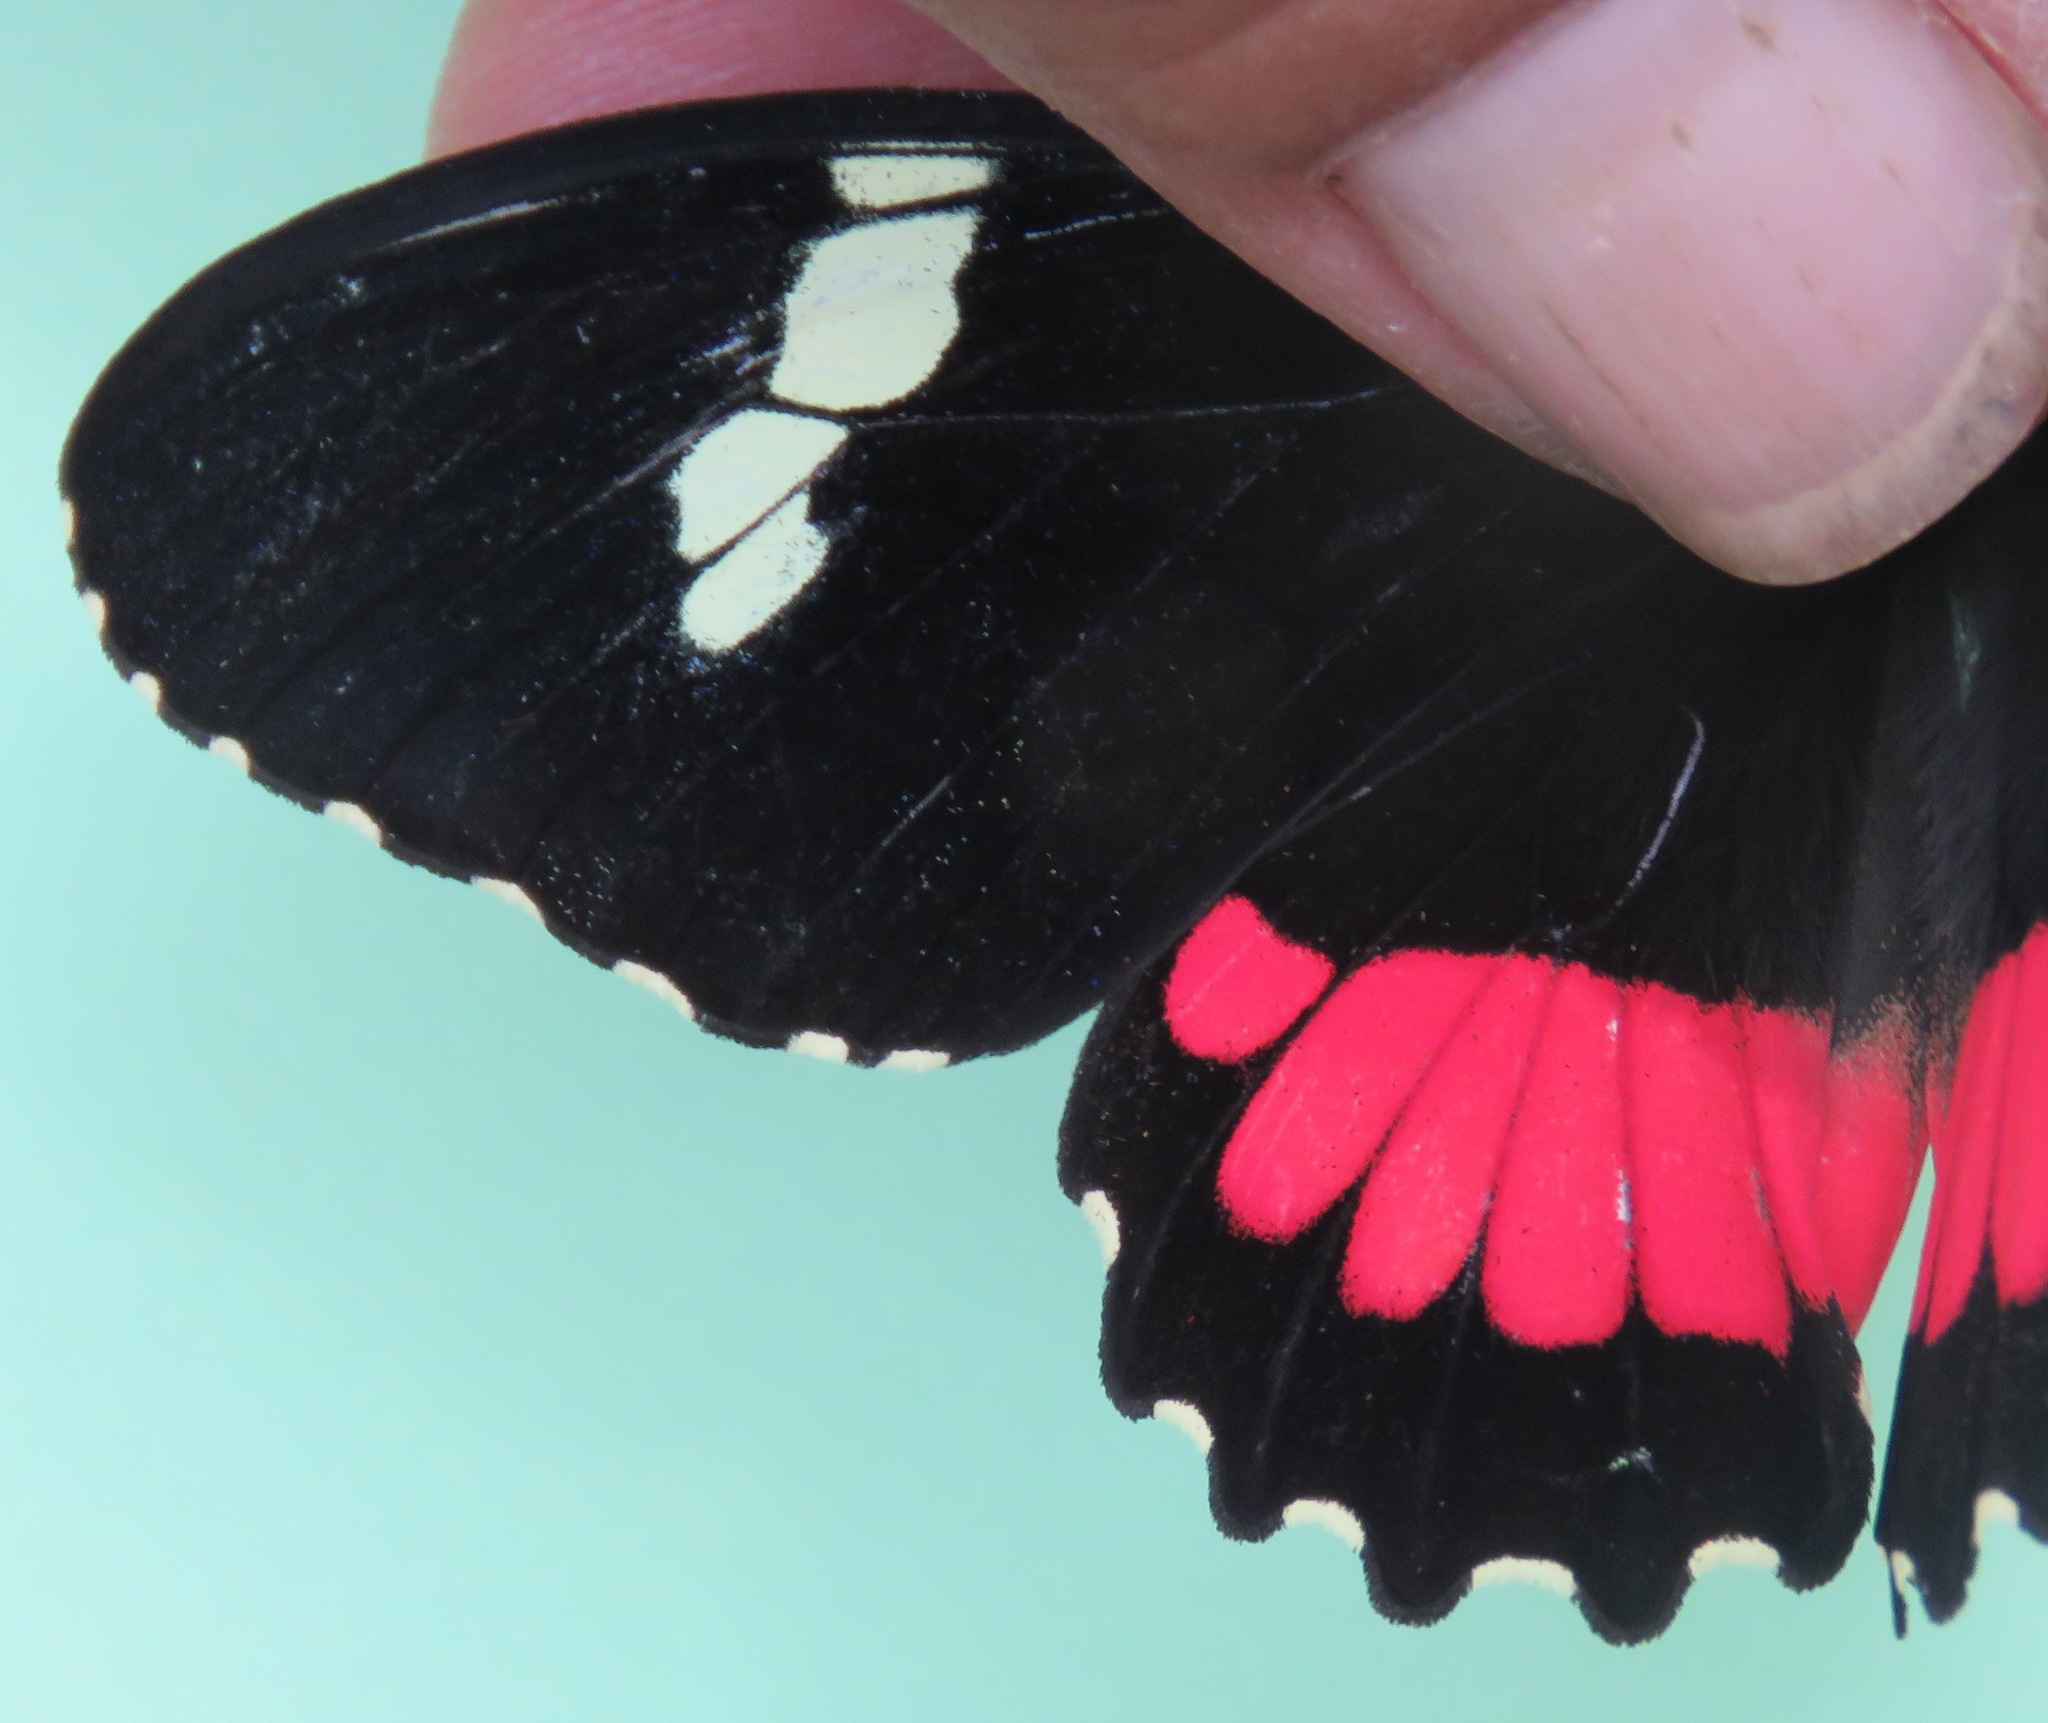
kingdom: Animalia
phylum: Arthropoda
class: Insecta
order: Lepidoptera
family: Papilionidae
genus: Parides
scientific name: Parides iphidamas
